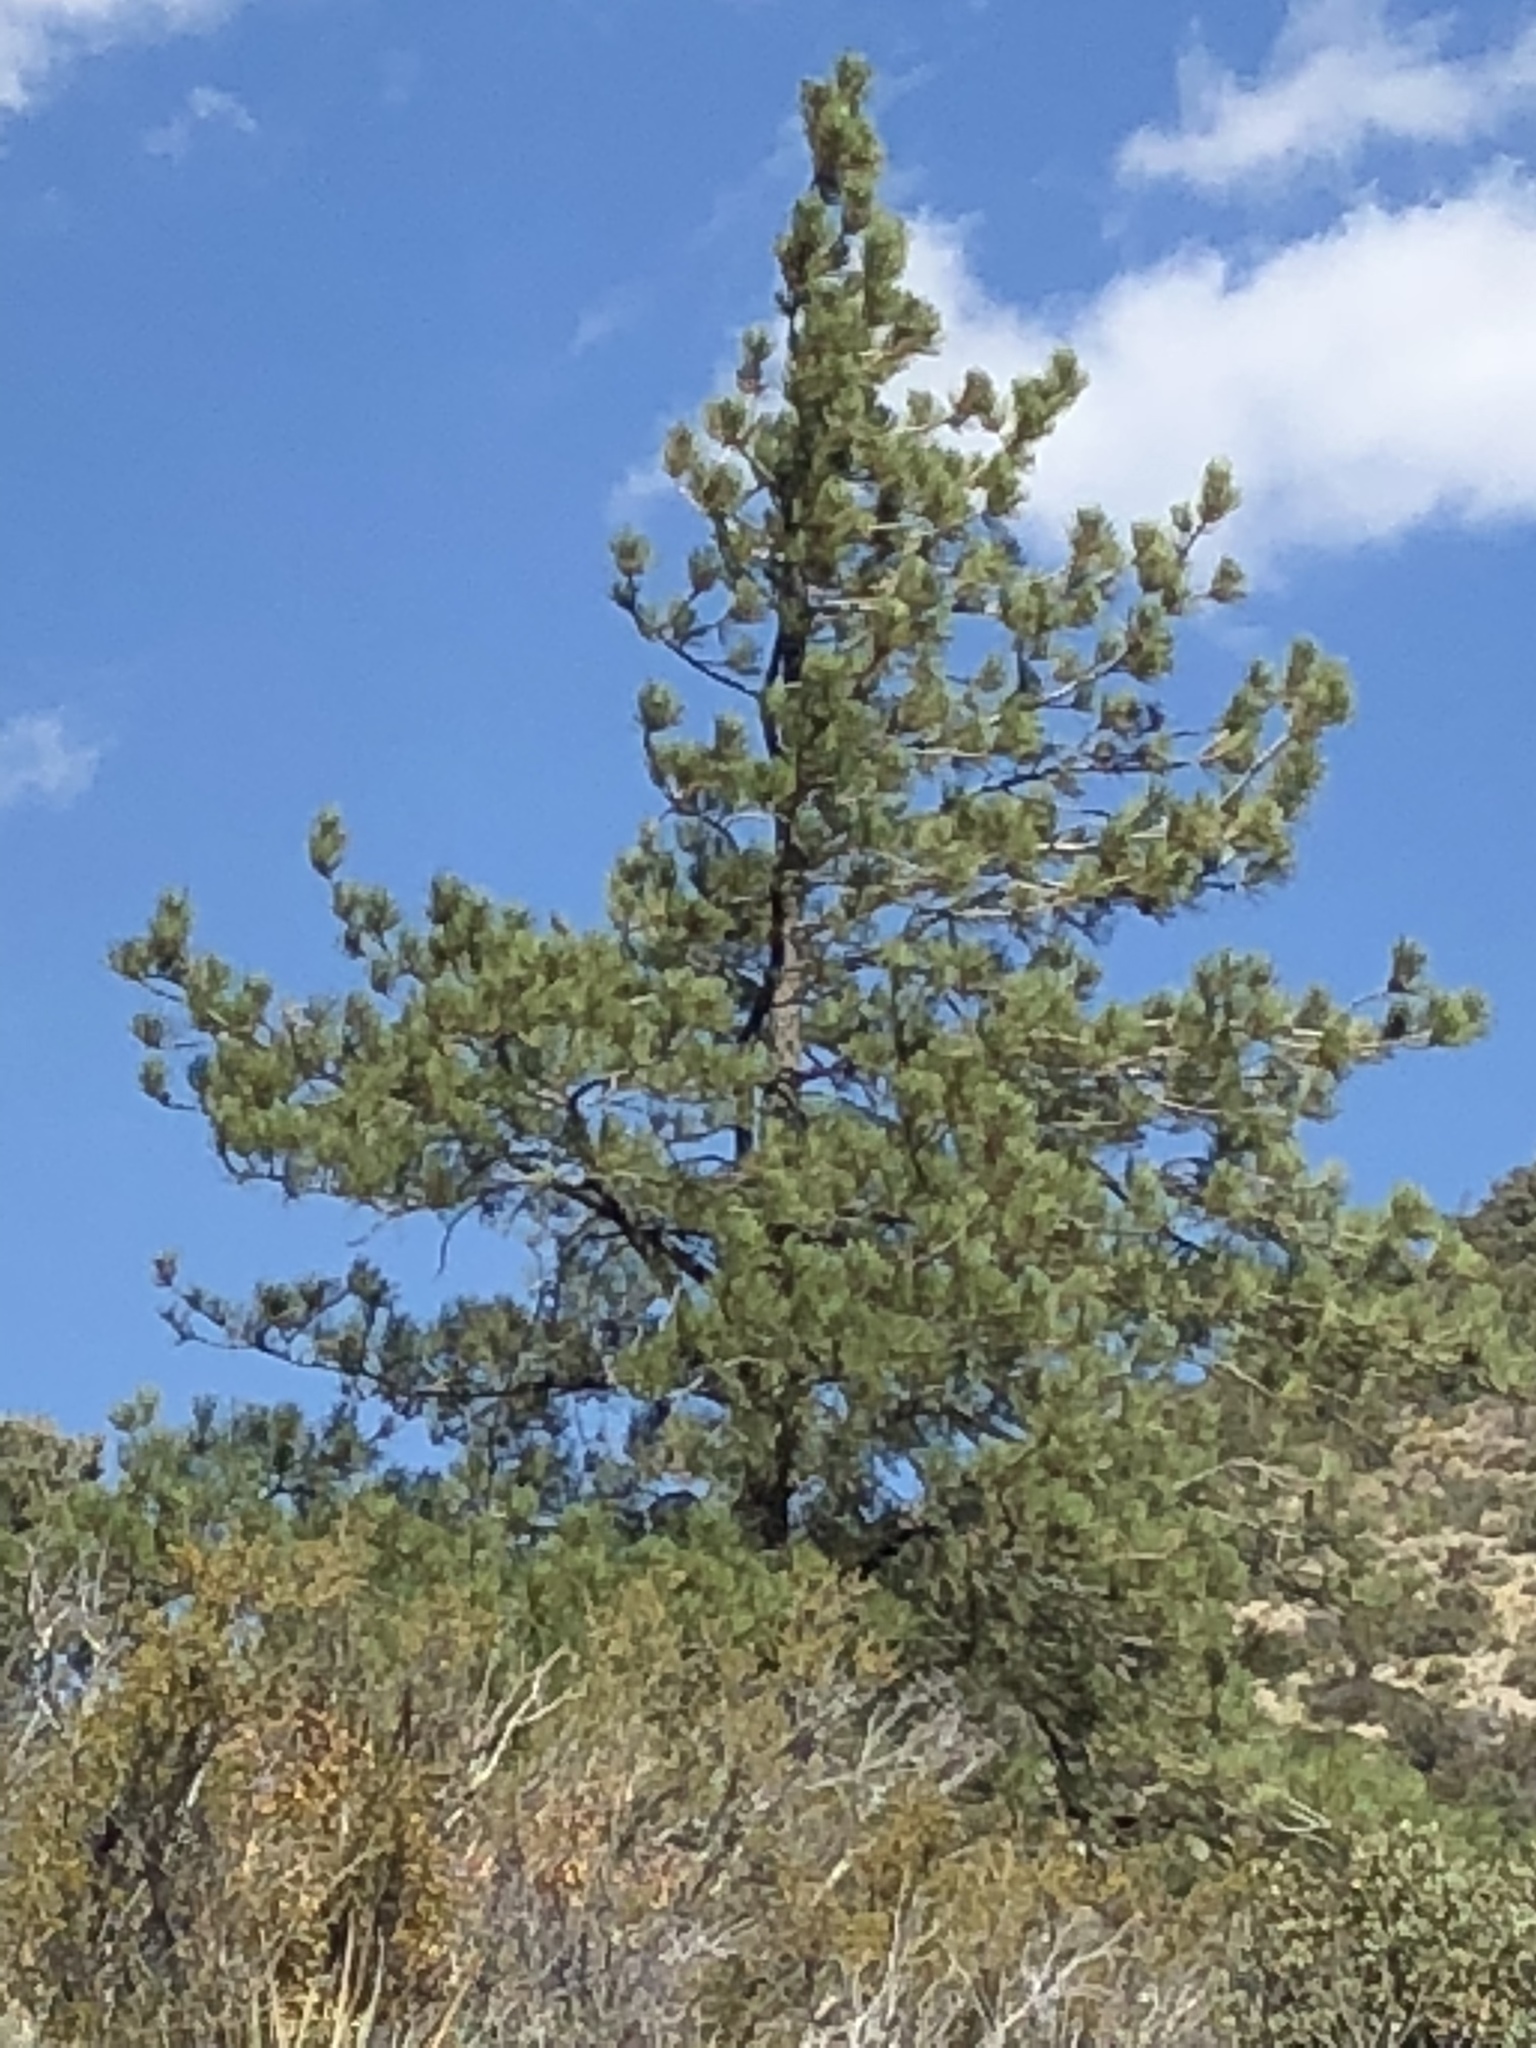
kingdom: Plantae
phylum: Tracheophyta
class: Pinopsida
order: Pinales
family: Pinaceae
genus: Pinus
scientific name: Pinus ponderosa
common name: Western yellow-pine
